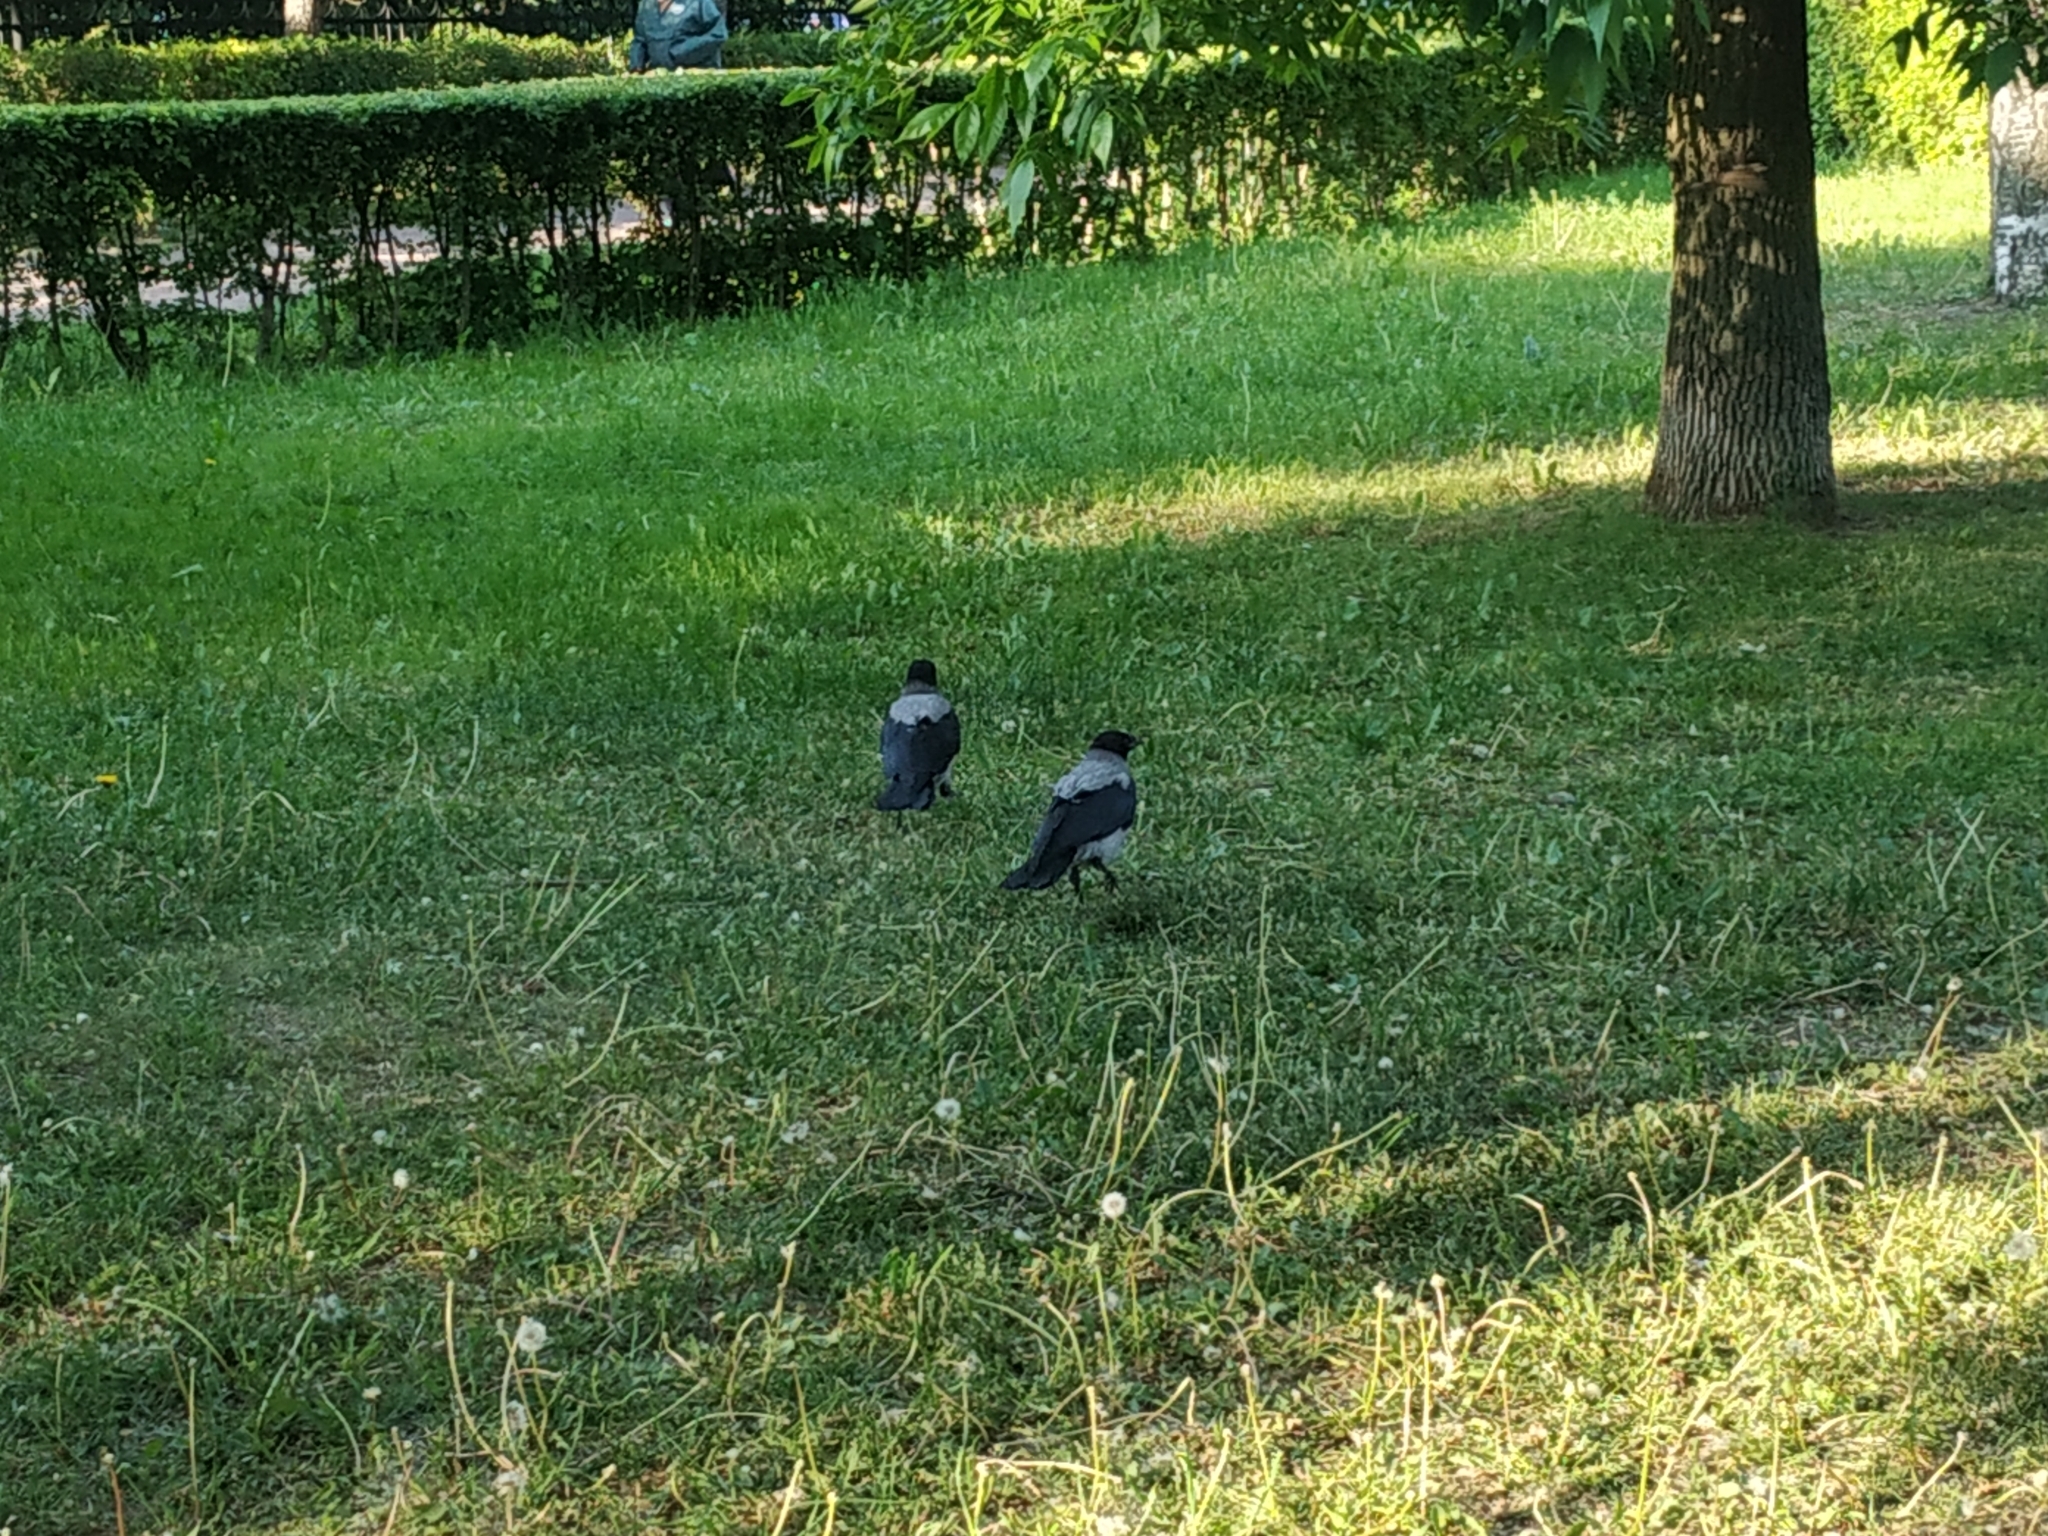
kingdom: Animalia
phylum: Chordata
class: Aves
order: Passeriformes
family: Corvidae
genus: Corvus
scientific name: Corvus cornix
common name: Hooded crow
